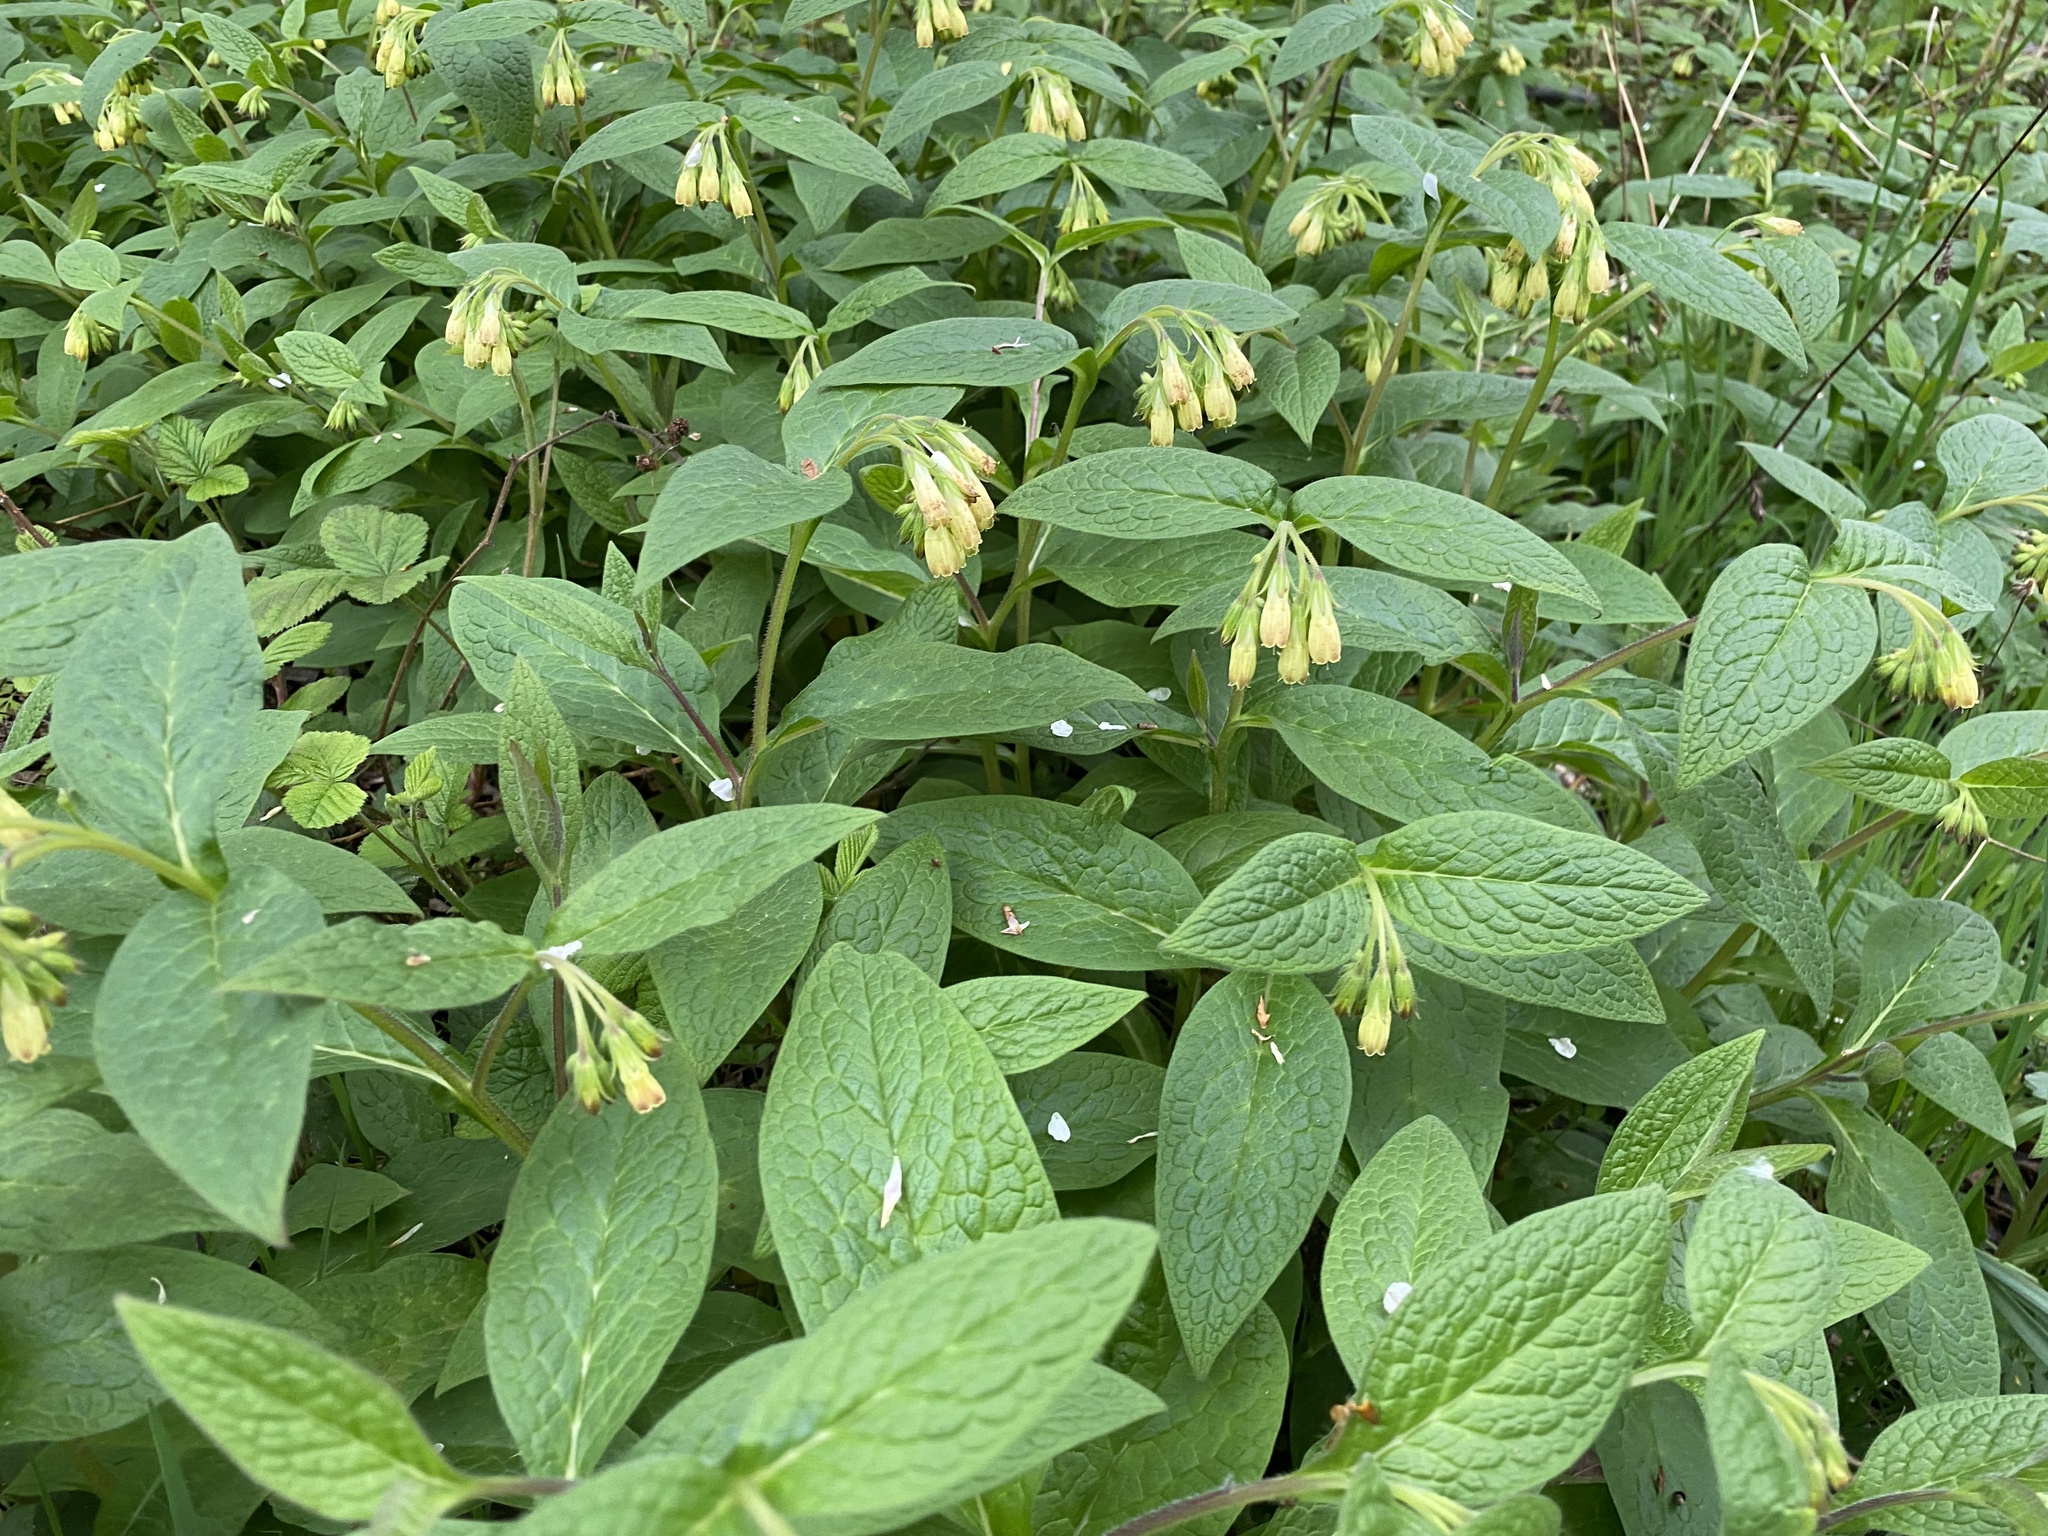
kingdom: Plantae
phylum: Tracheophyta
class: Magnoliopsida
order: Boraginales
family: Boraginaceae
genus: Symphytum
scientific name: Symphytum tuberosum
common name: Tuberous comfrey
